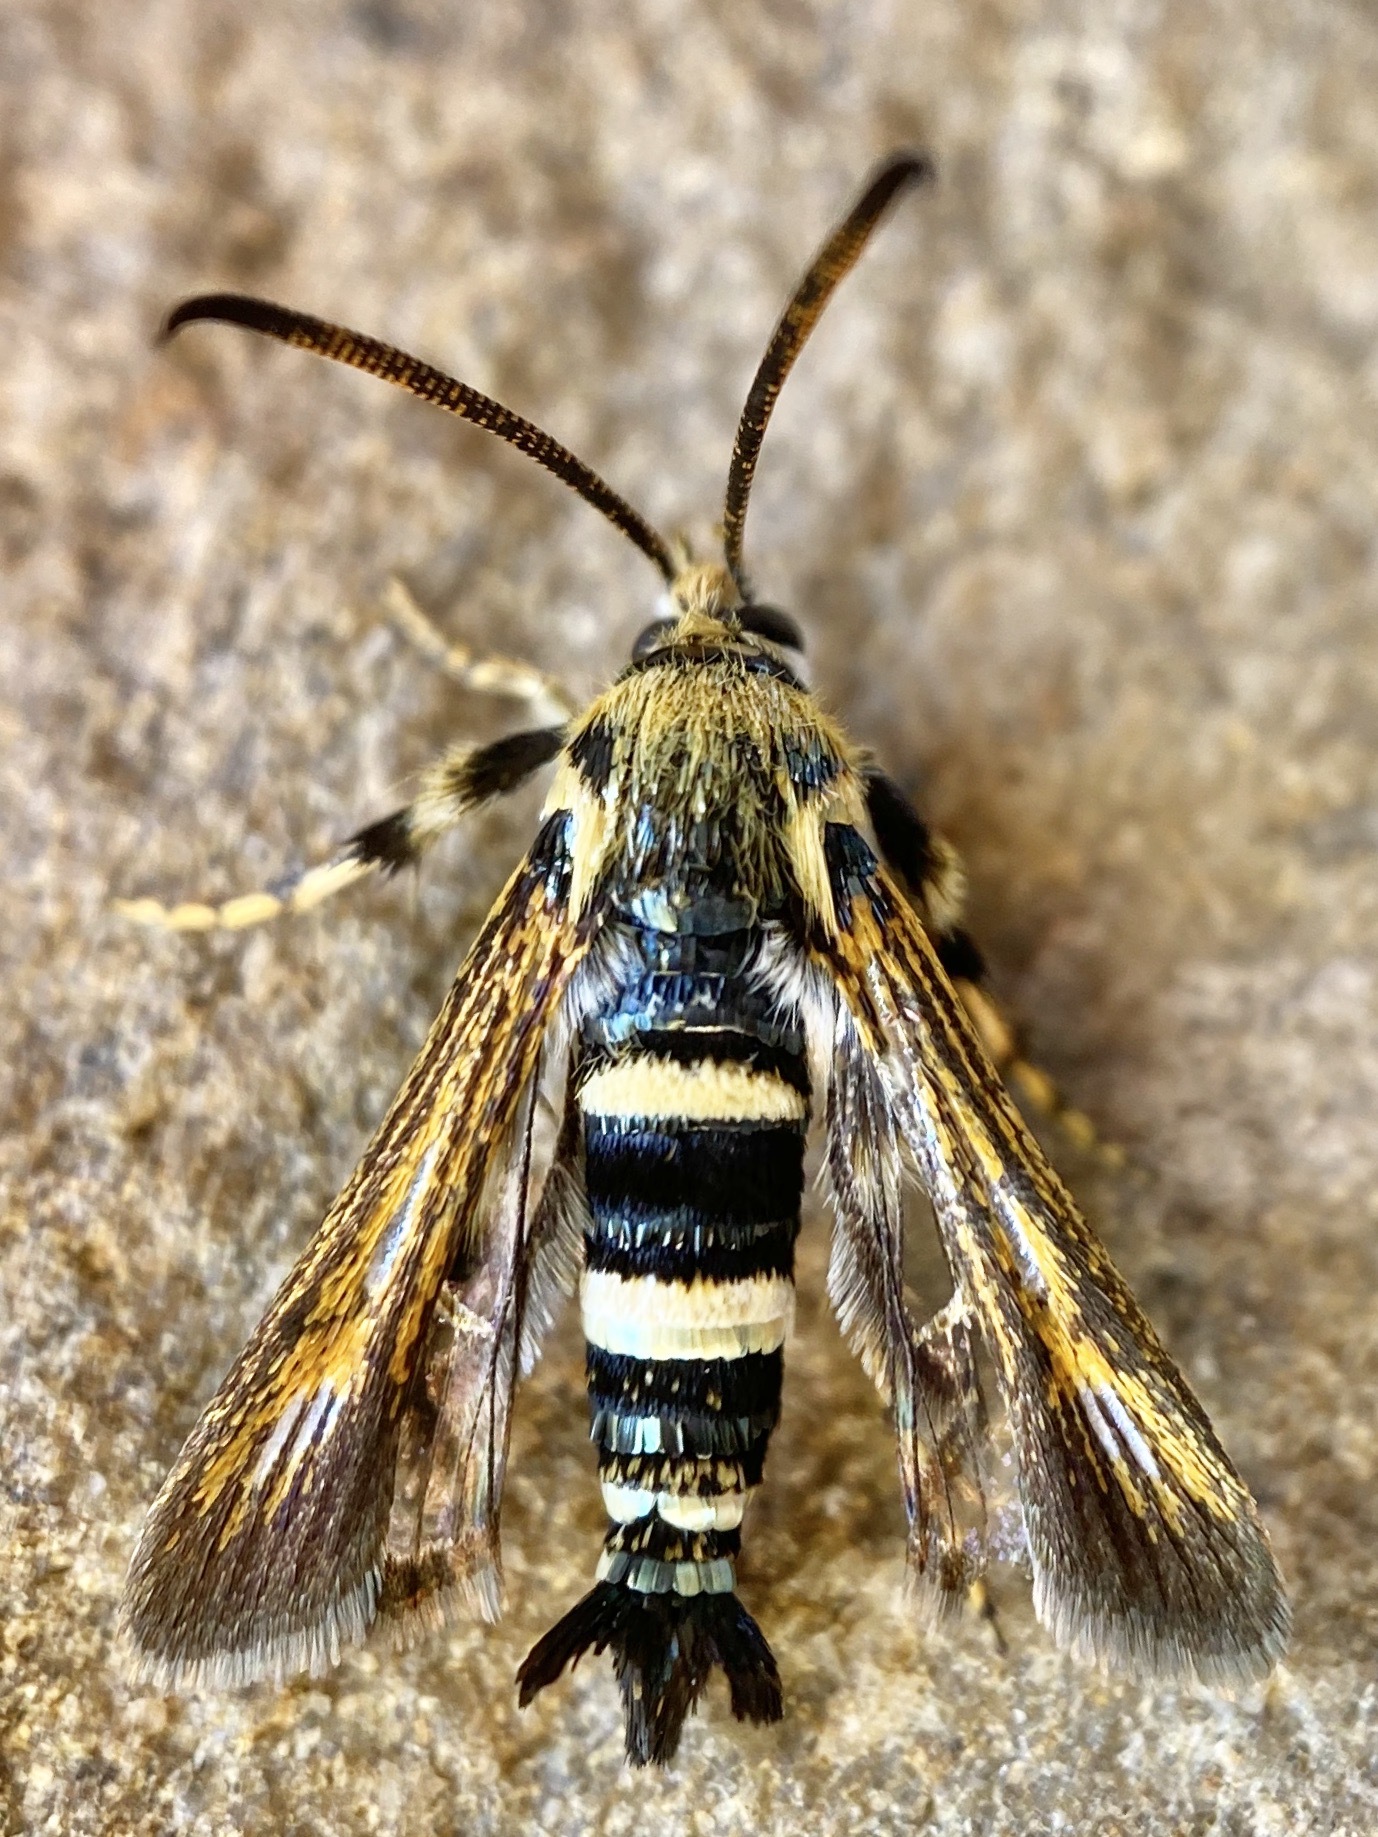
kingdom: Animalia
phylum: Arthropoda
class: Insecta
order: Lepidoptera
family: Sesiidae
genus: Osminia
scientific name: Osminia ruficornis
